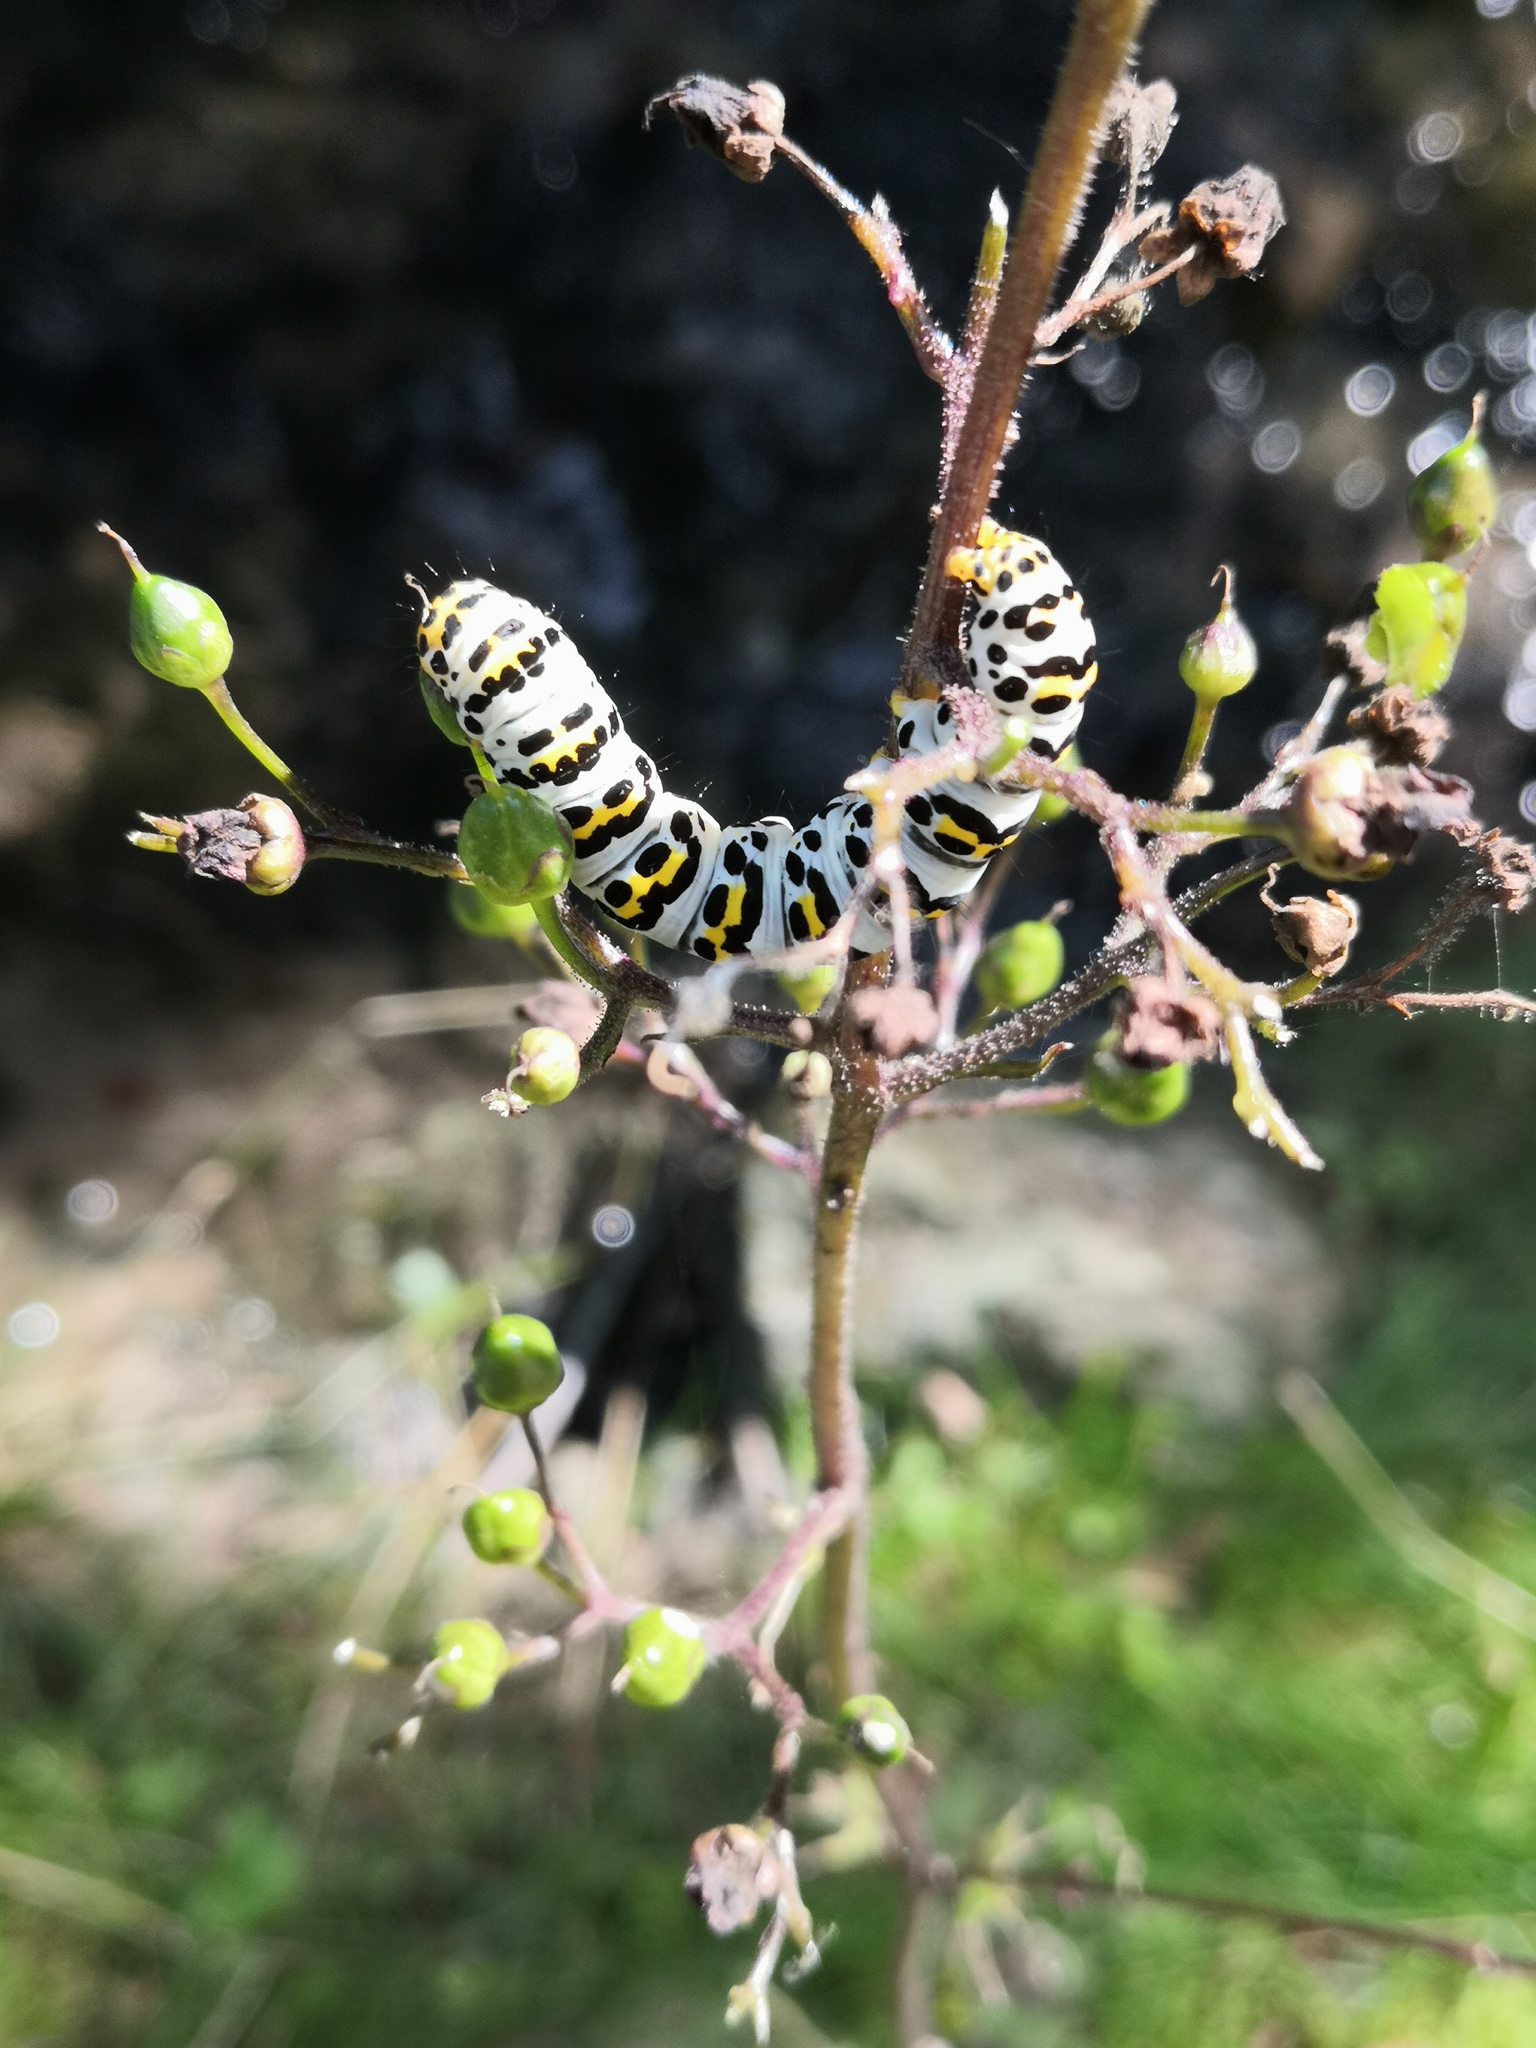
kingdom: Animalia
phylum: Arthropoda
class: Insecta
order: Lepidoptera
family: Noctuidae
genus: Shargacucullia
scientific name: Shargacucullia scrophulariae
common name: Water betony
